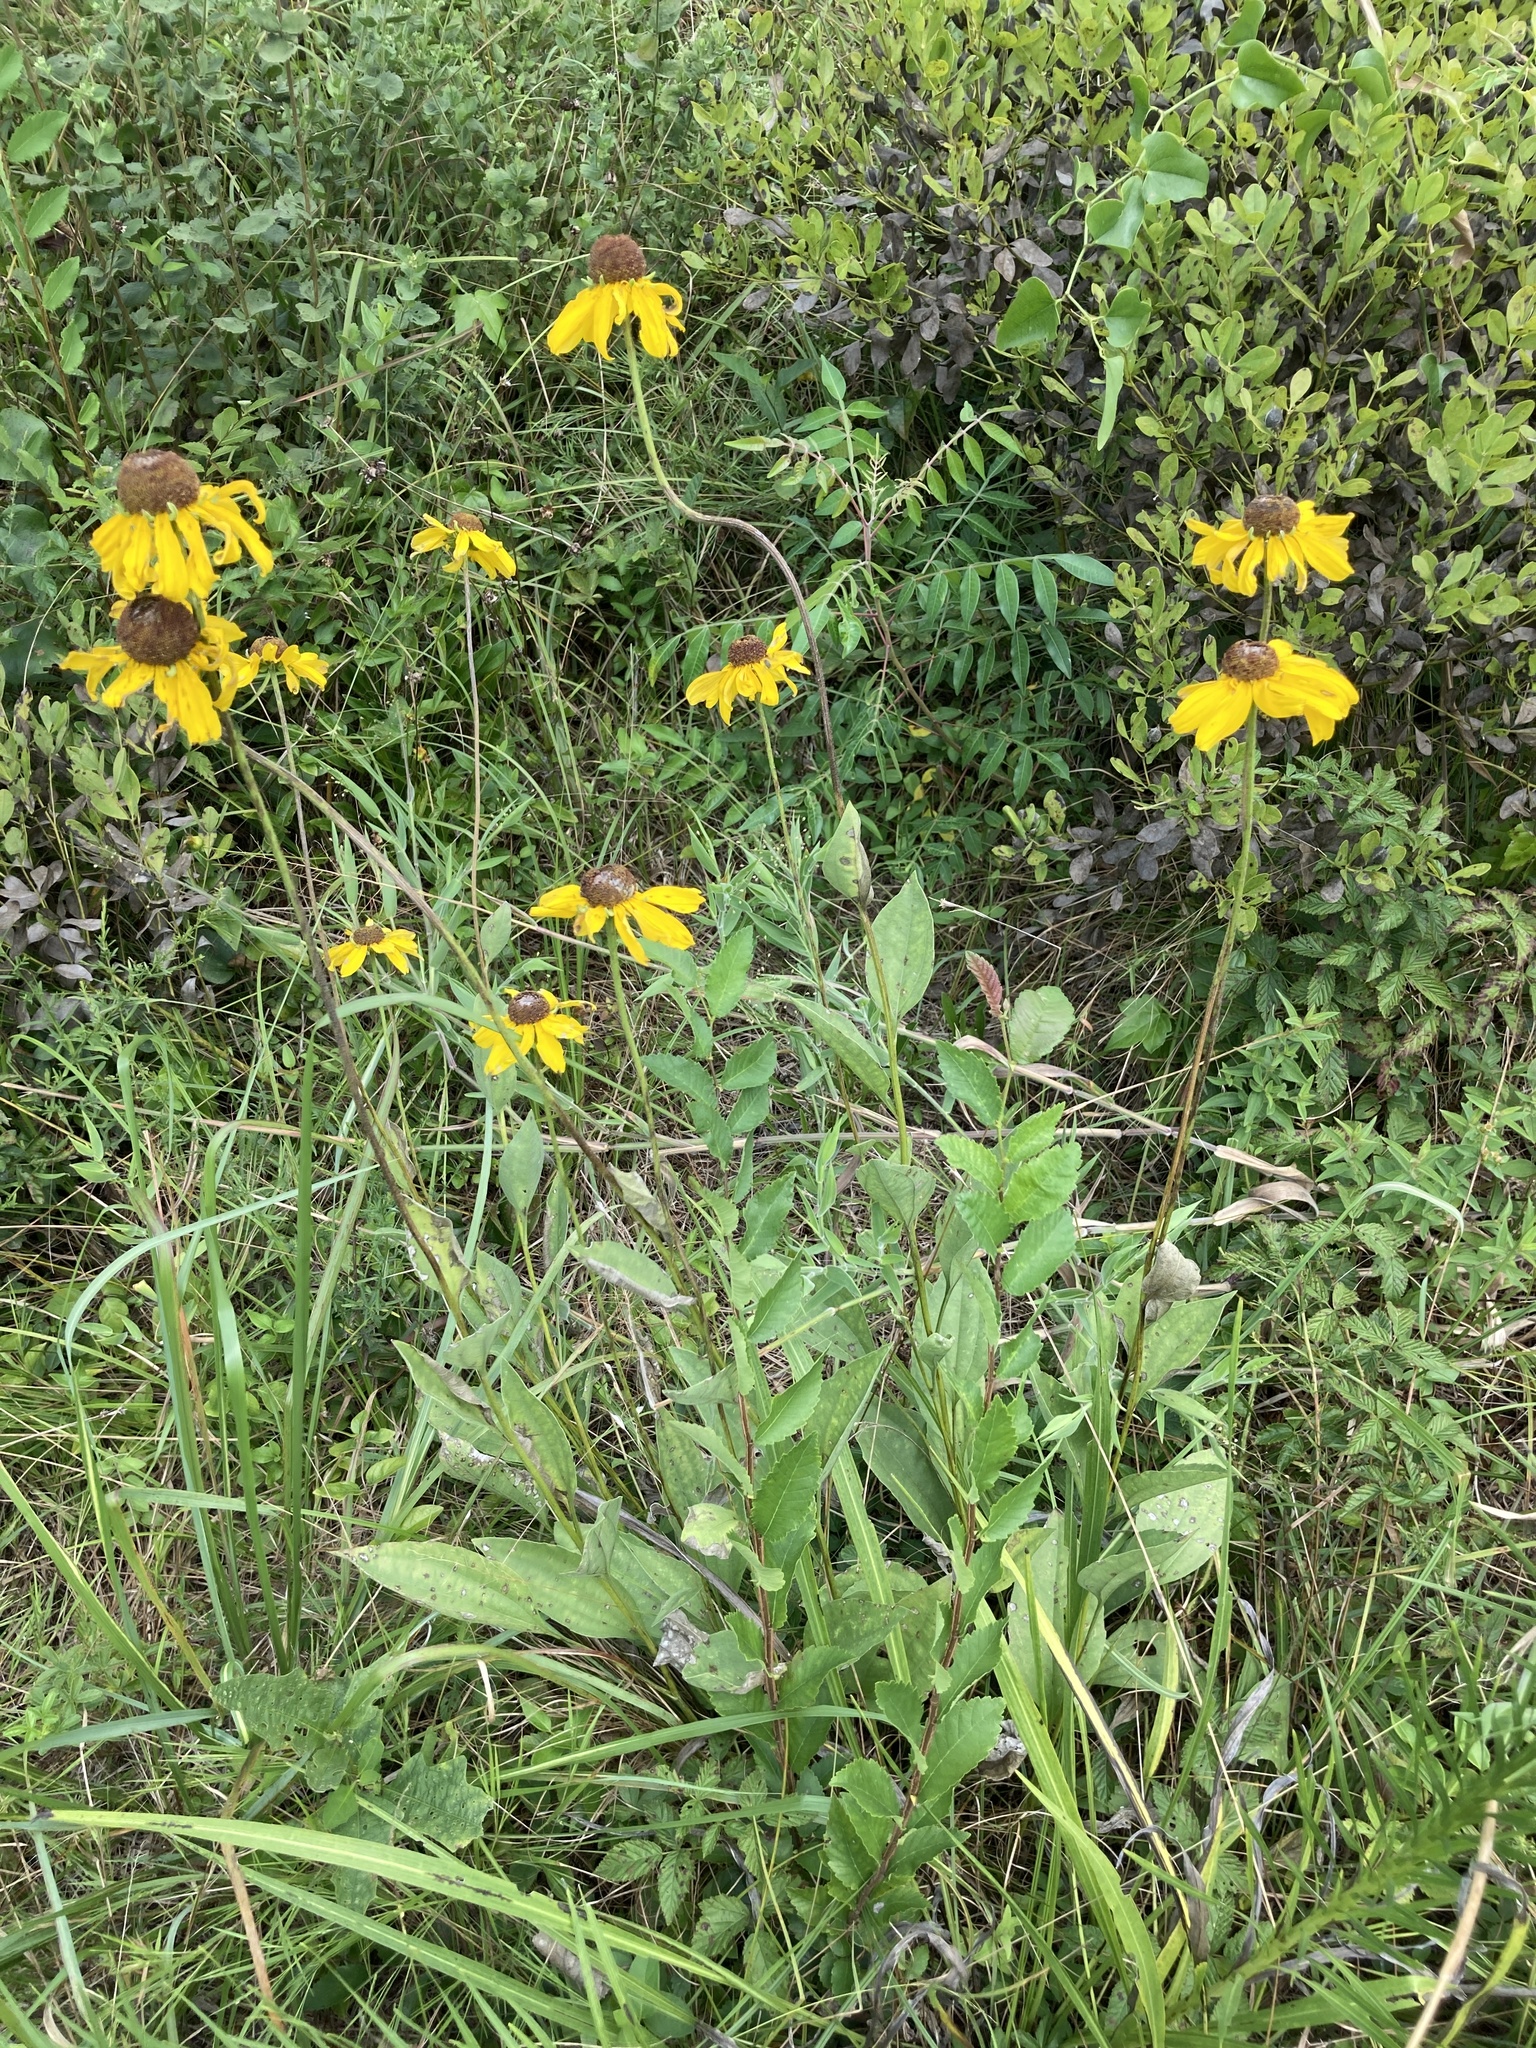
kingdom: Plantae
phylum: Tracheophyta
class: Magnoliopsida
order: Asterales
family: Asteraceae
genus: Rudbeckia
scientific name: Rudbeckia grandiflora
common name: Large-flowered coneflower
